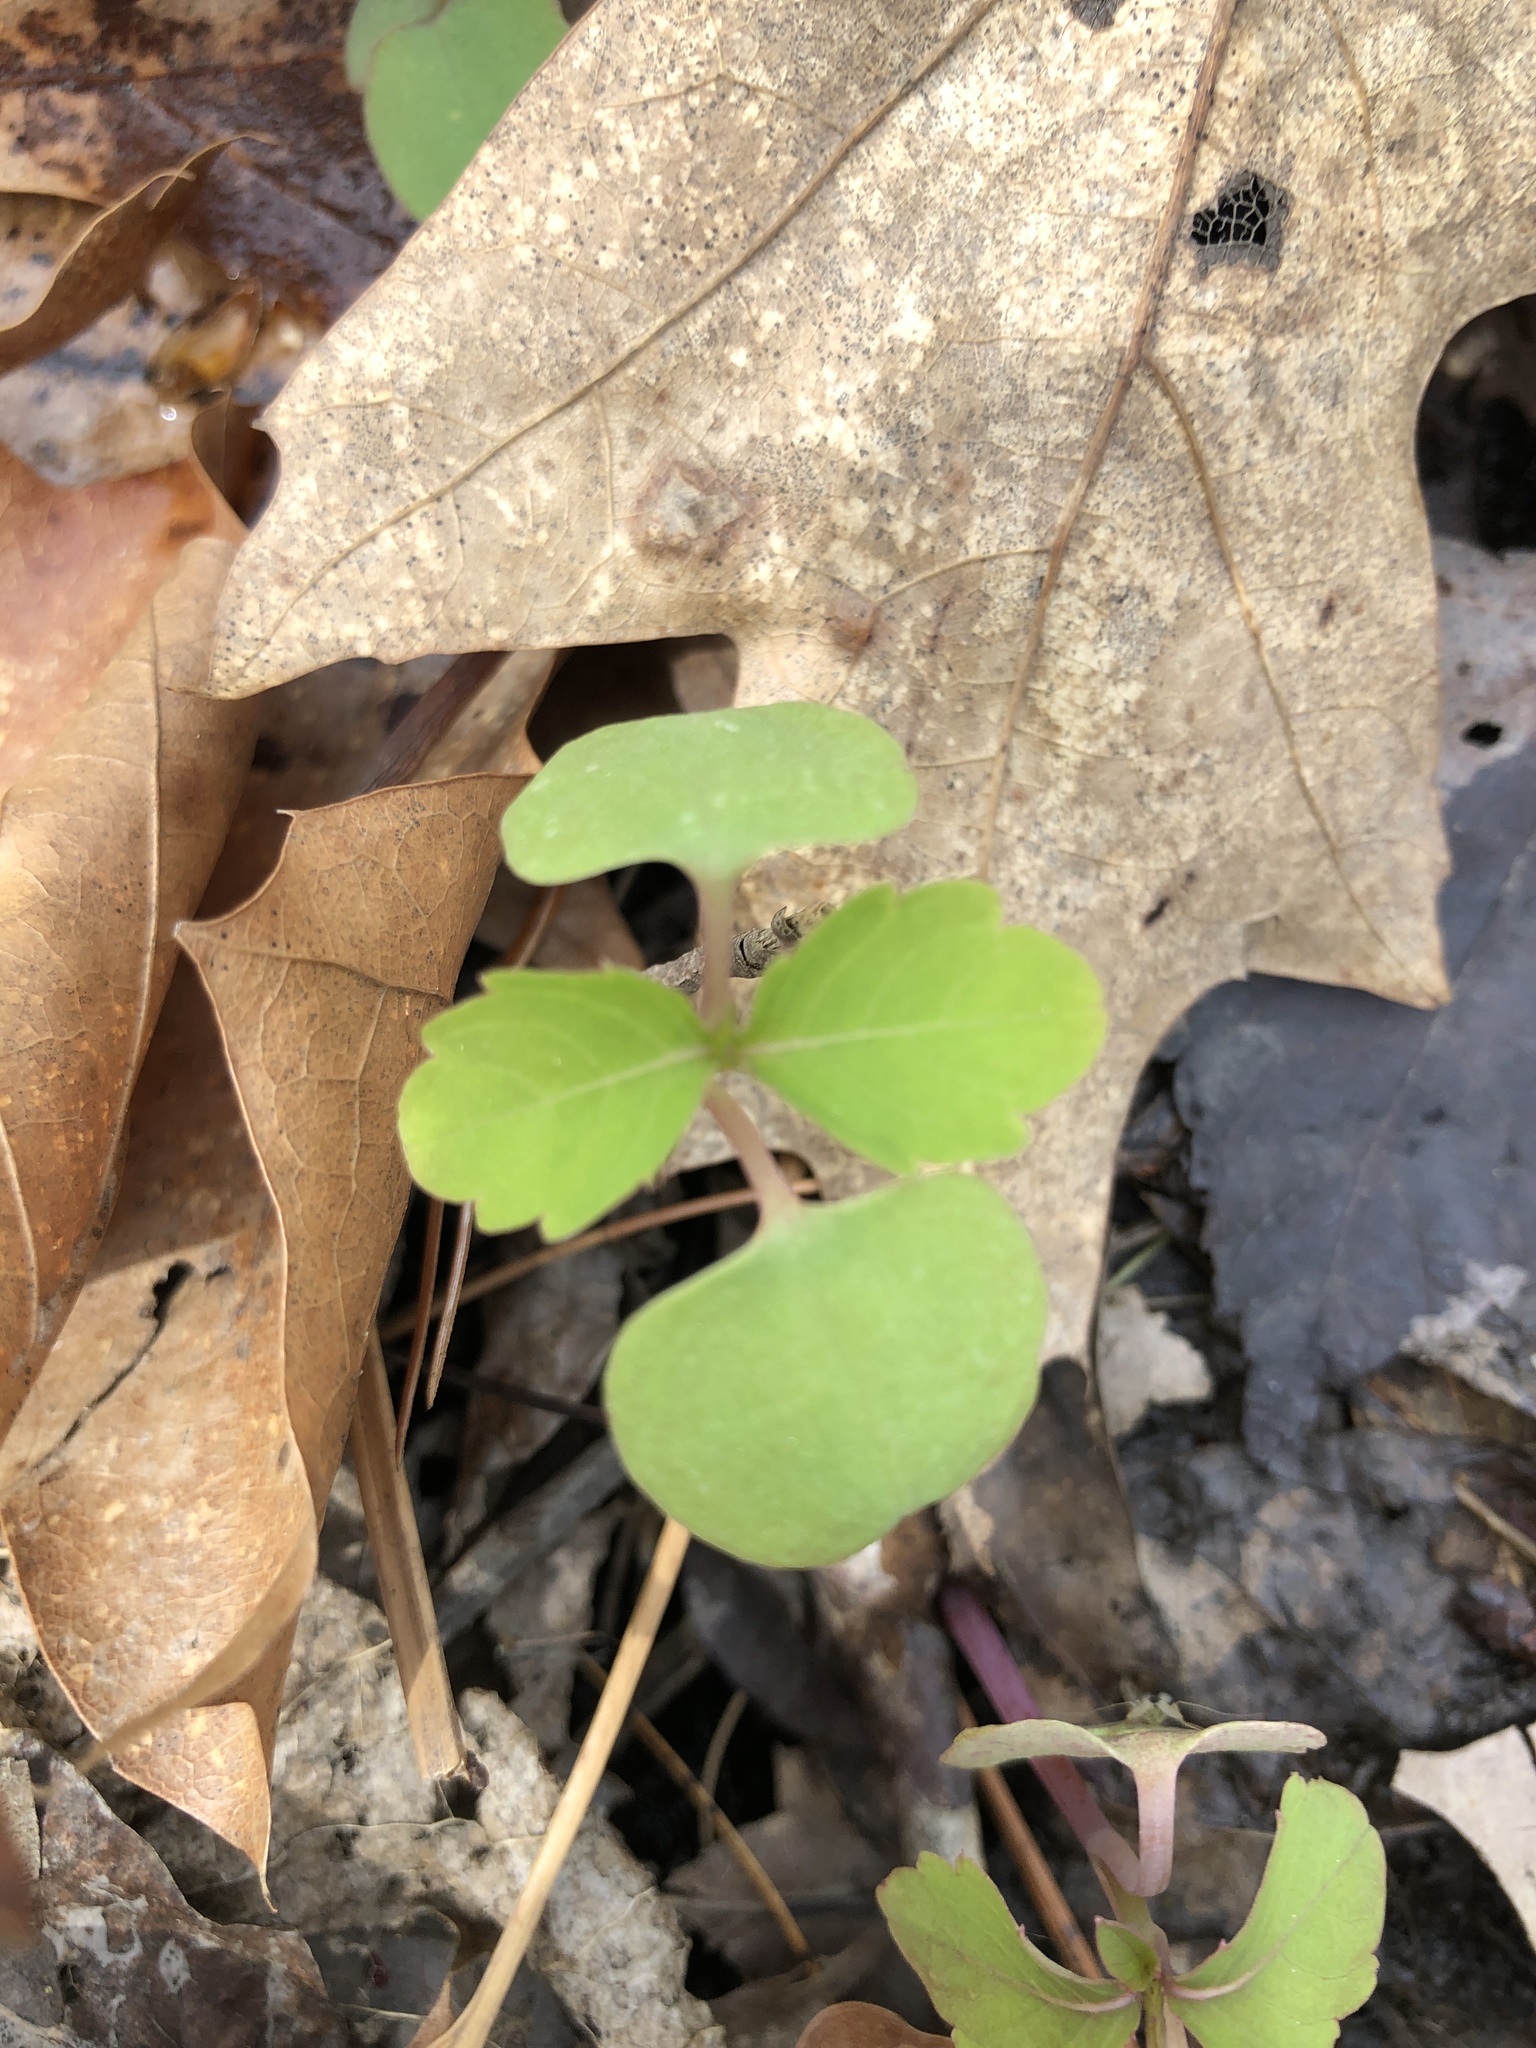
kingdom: Plantae
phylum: Tracheophyta
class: Magnoliopsida
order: Ericales
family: Balsaminaceae
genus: Impatiens
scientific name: Impatiens capensis
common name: Orange balsam
